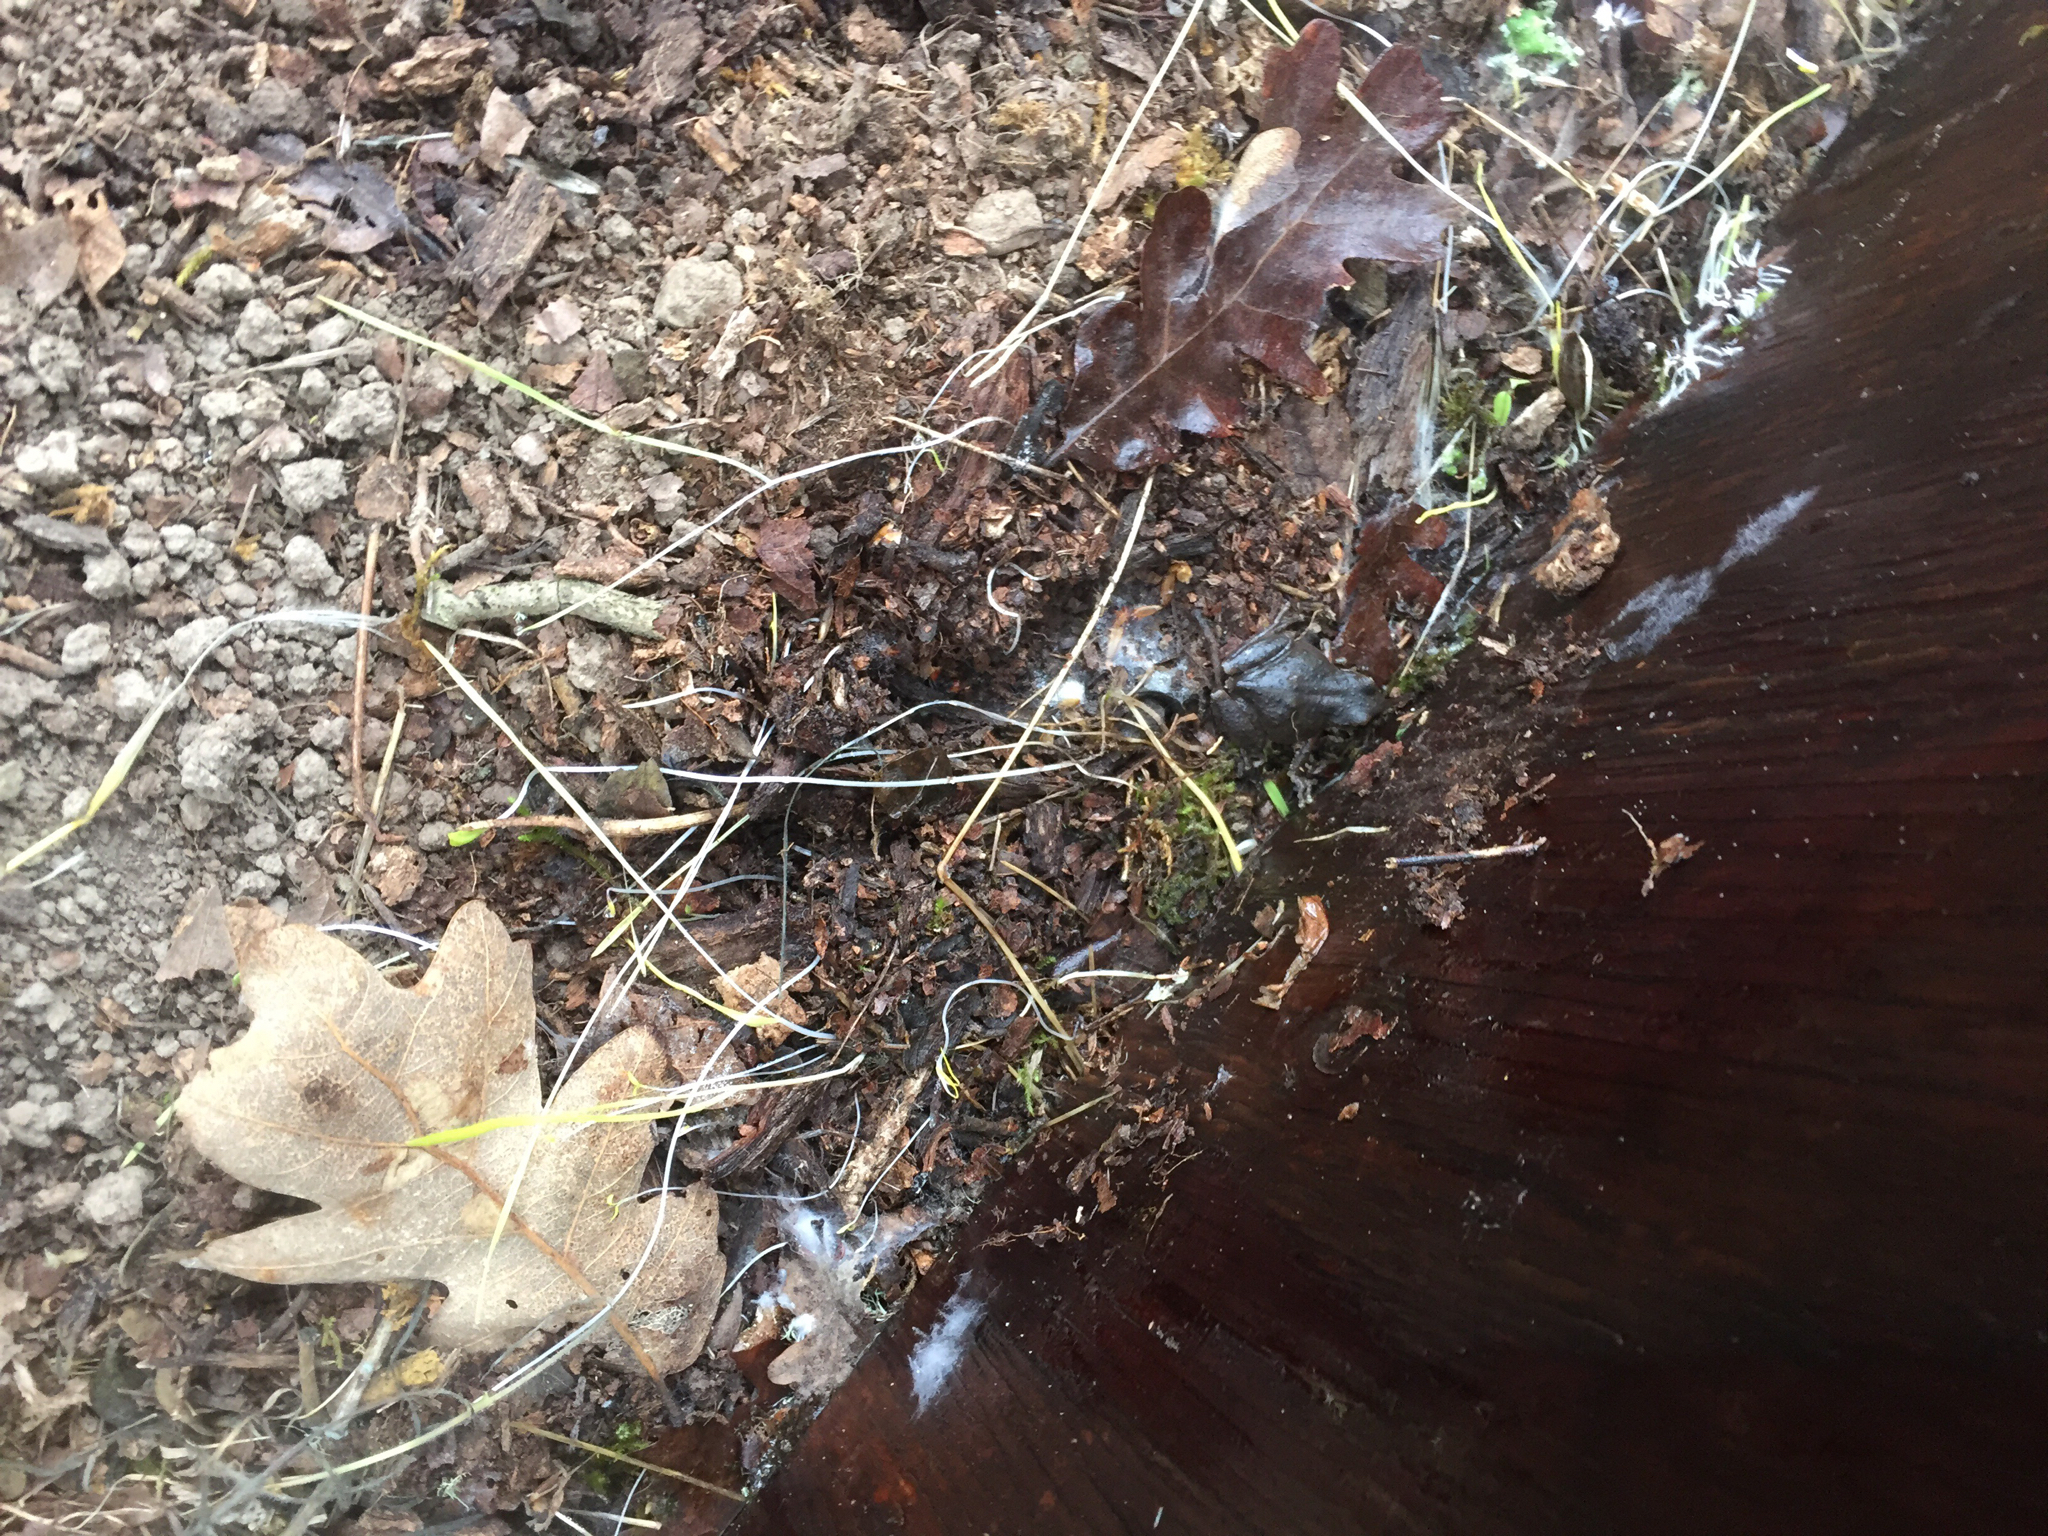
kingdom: Animalia
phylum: Chordata
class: Amphibia
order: Anura
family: Hylidae
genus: Pseudacris
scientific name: Pseudacris regilla
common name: Pacific chorus frog
